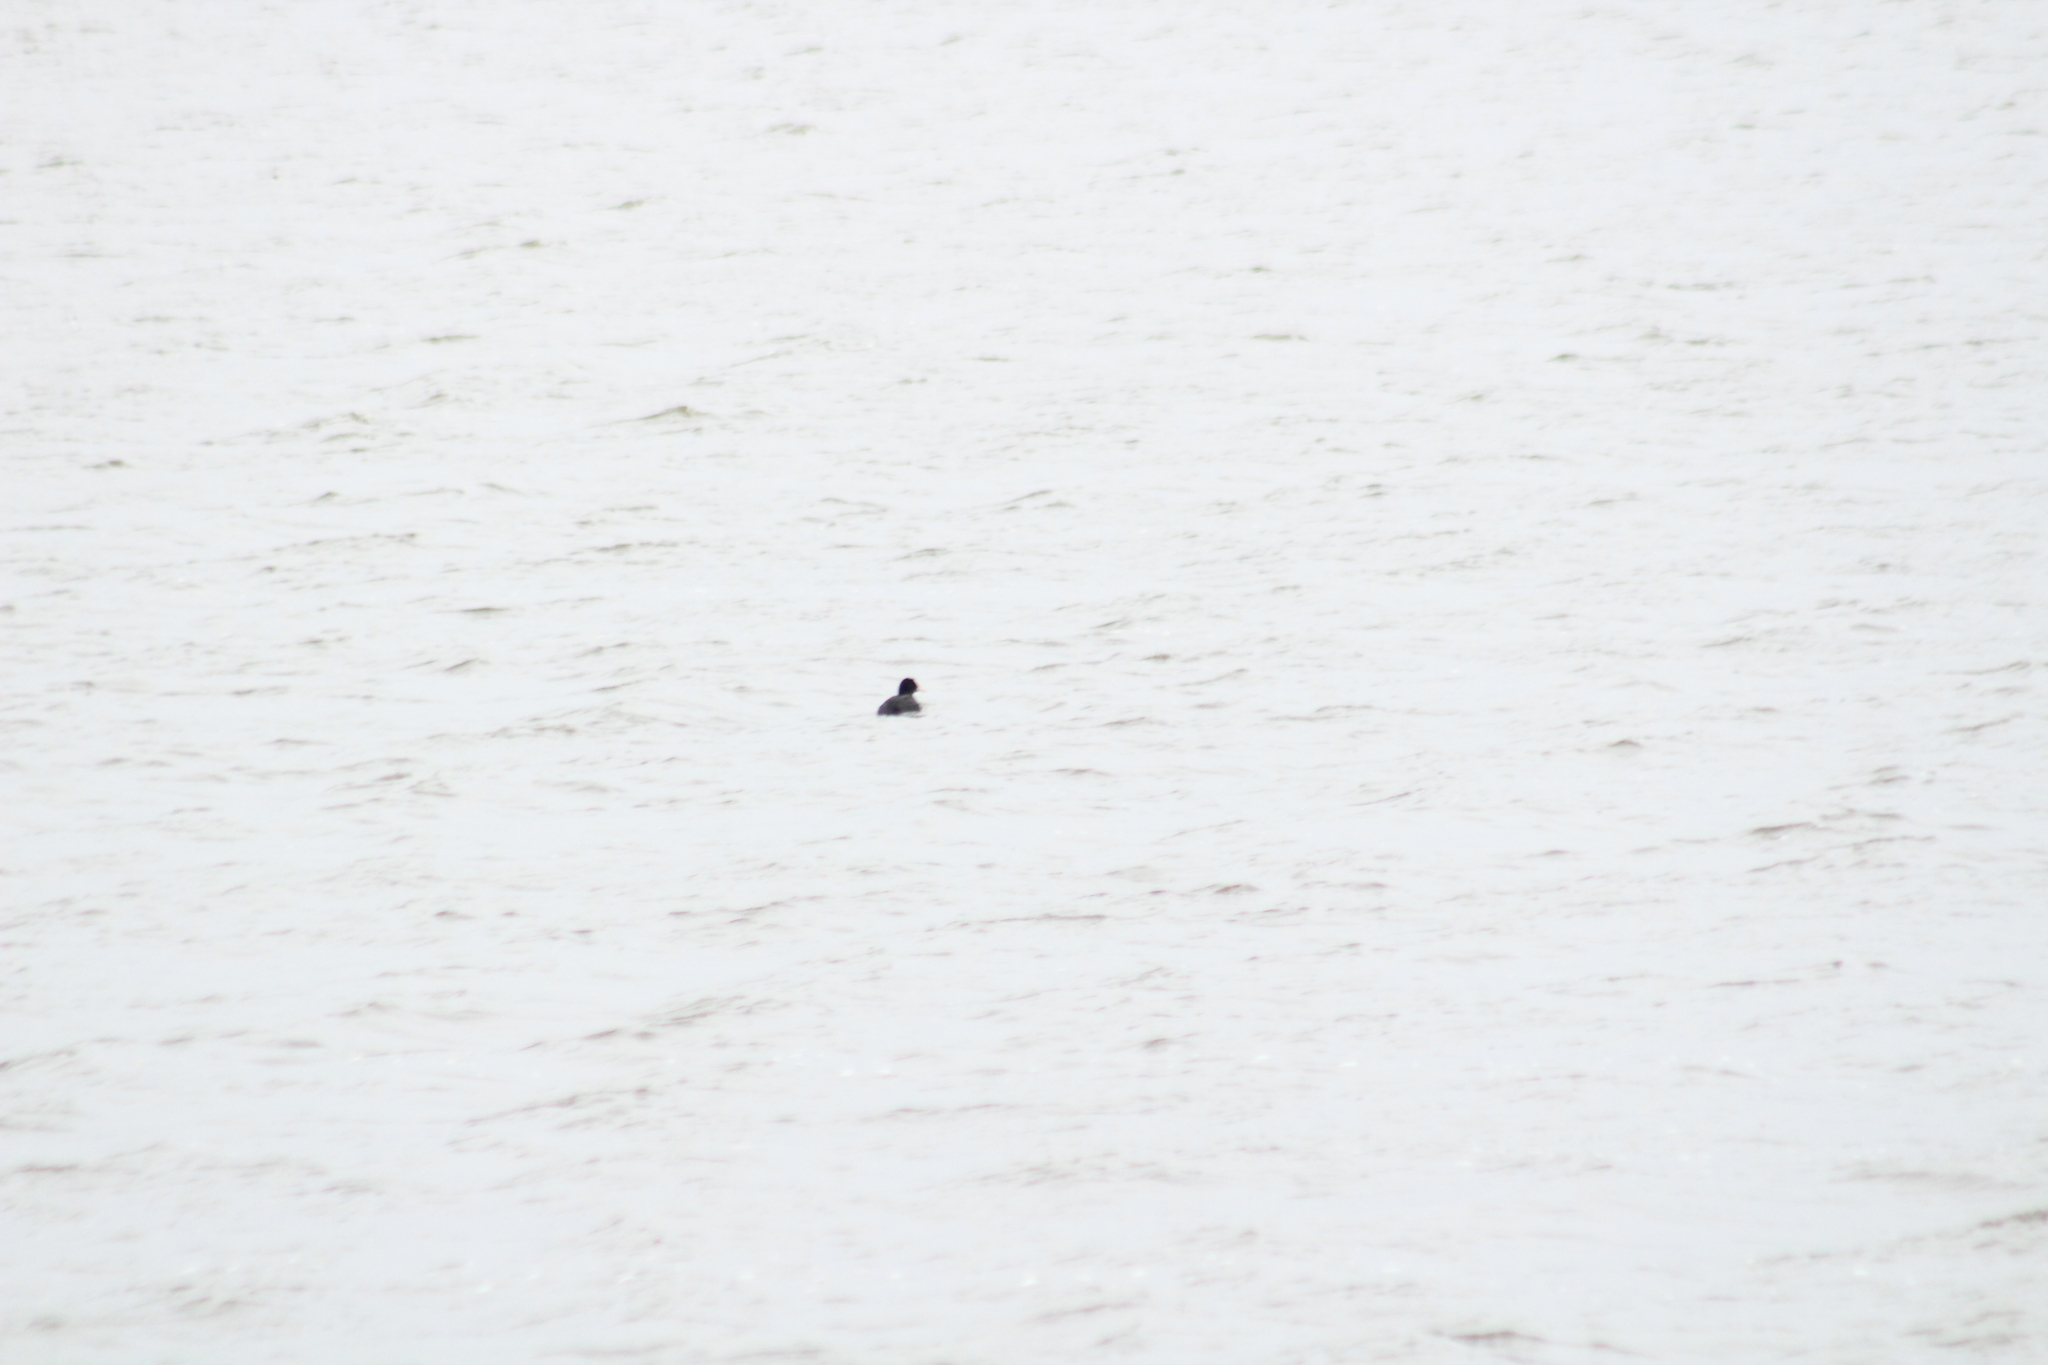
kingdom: Animalia
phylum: Chordata
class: Aves
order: Gruiformes
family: Rallidae
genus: Fulica
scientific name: Fulica atra
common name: Eurasian coot
